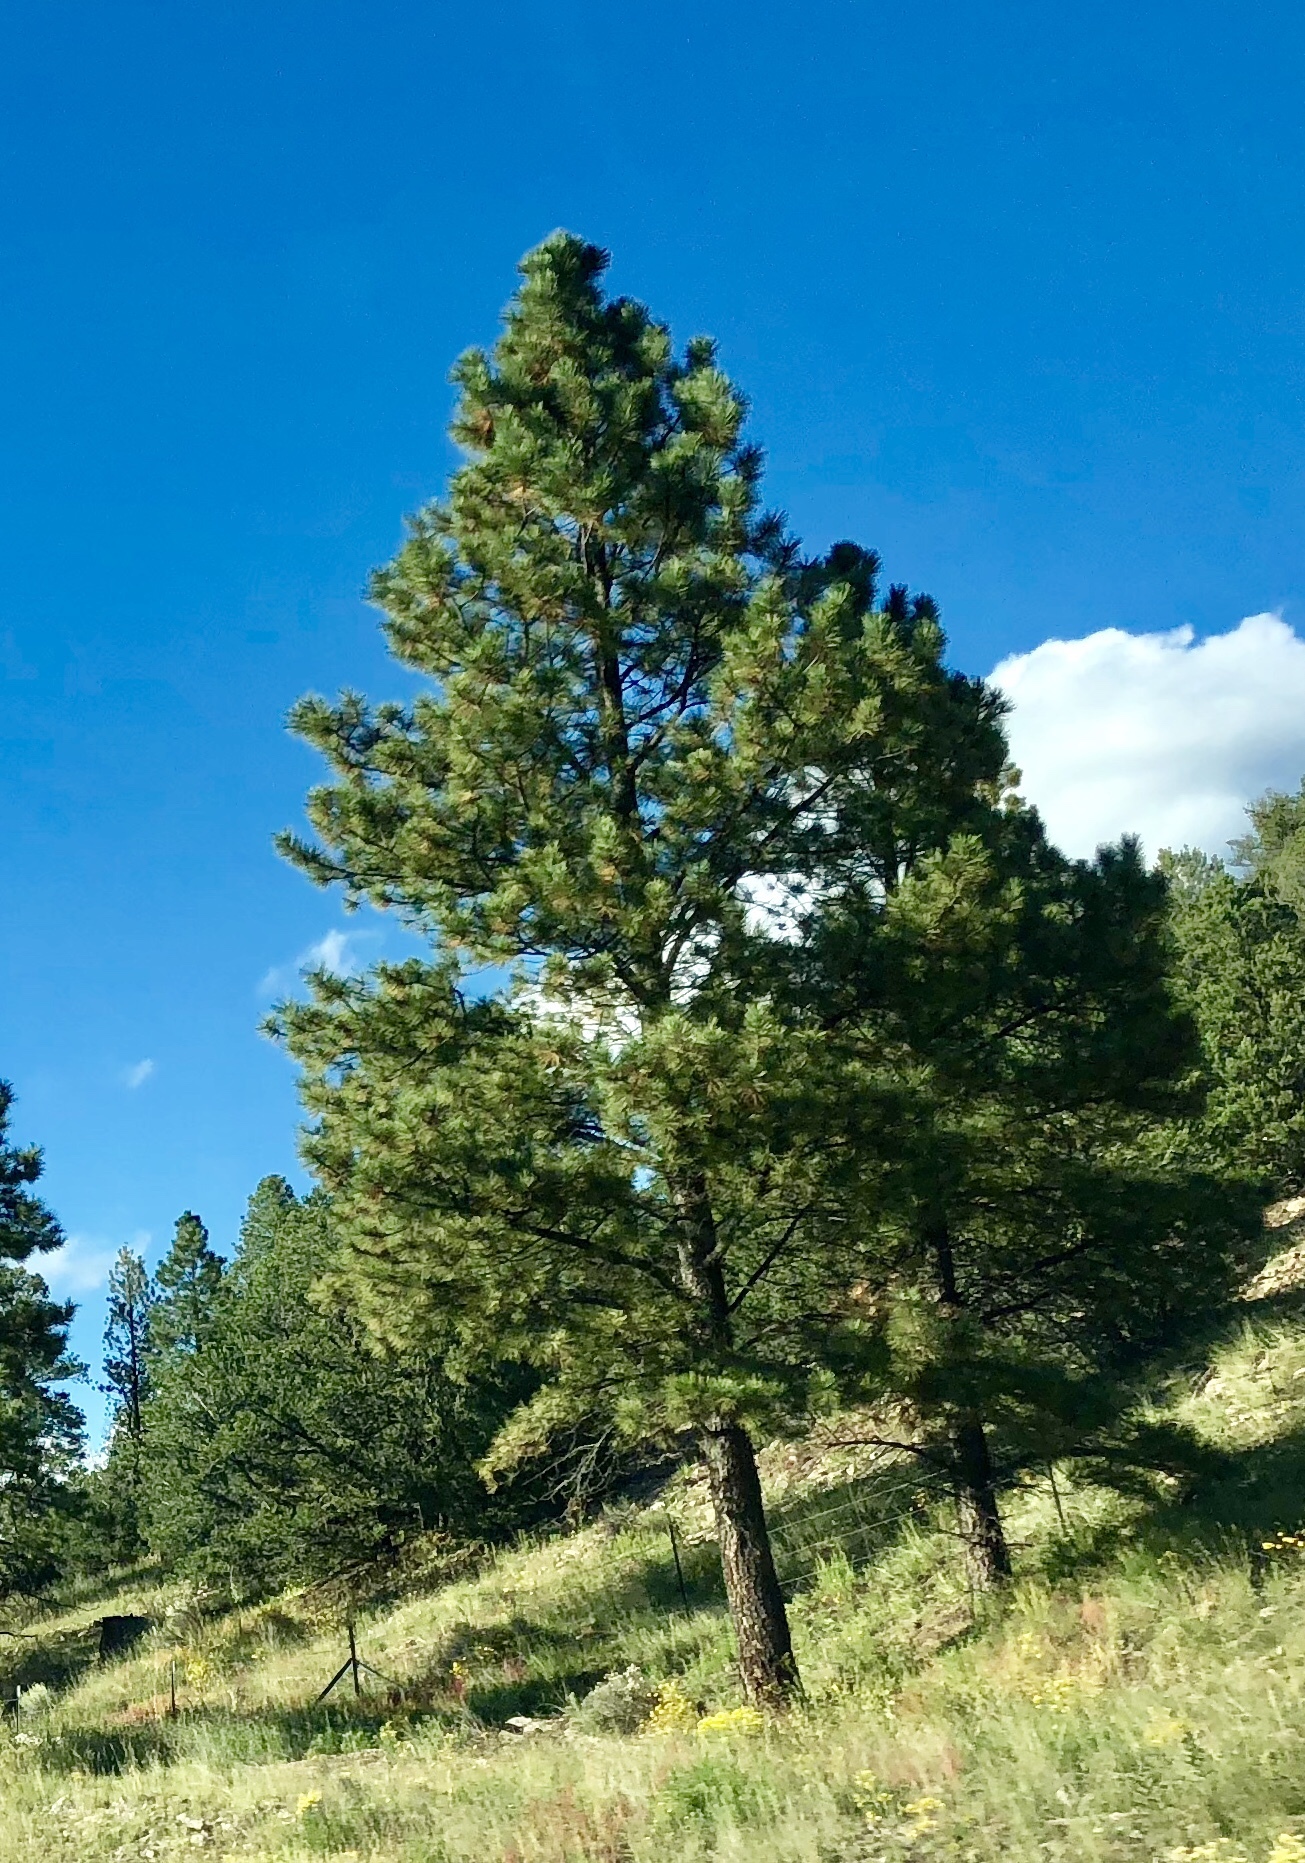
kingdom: Plantae
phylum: Tracheophyta
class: Pinopsida
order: Pinales
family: Pinaceae
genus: Pinus
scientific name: Pinus ponderosa
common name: Western yellow-pine
